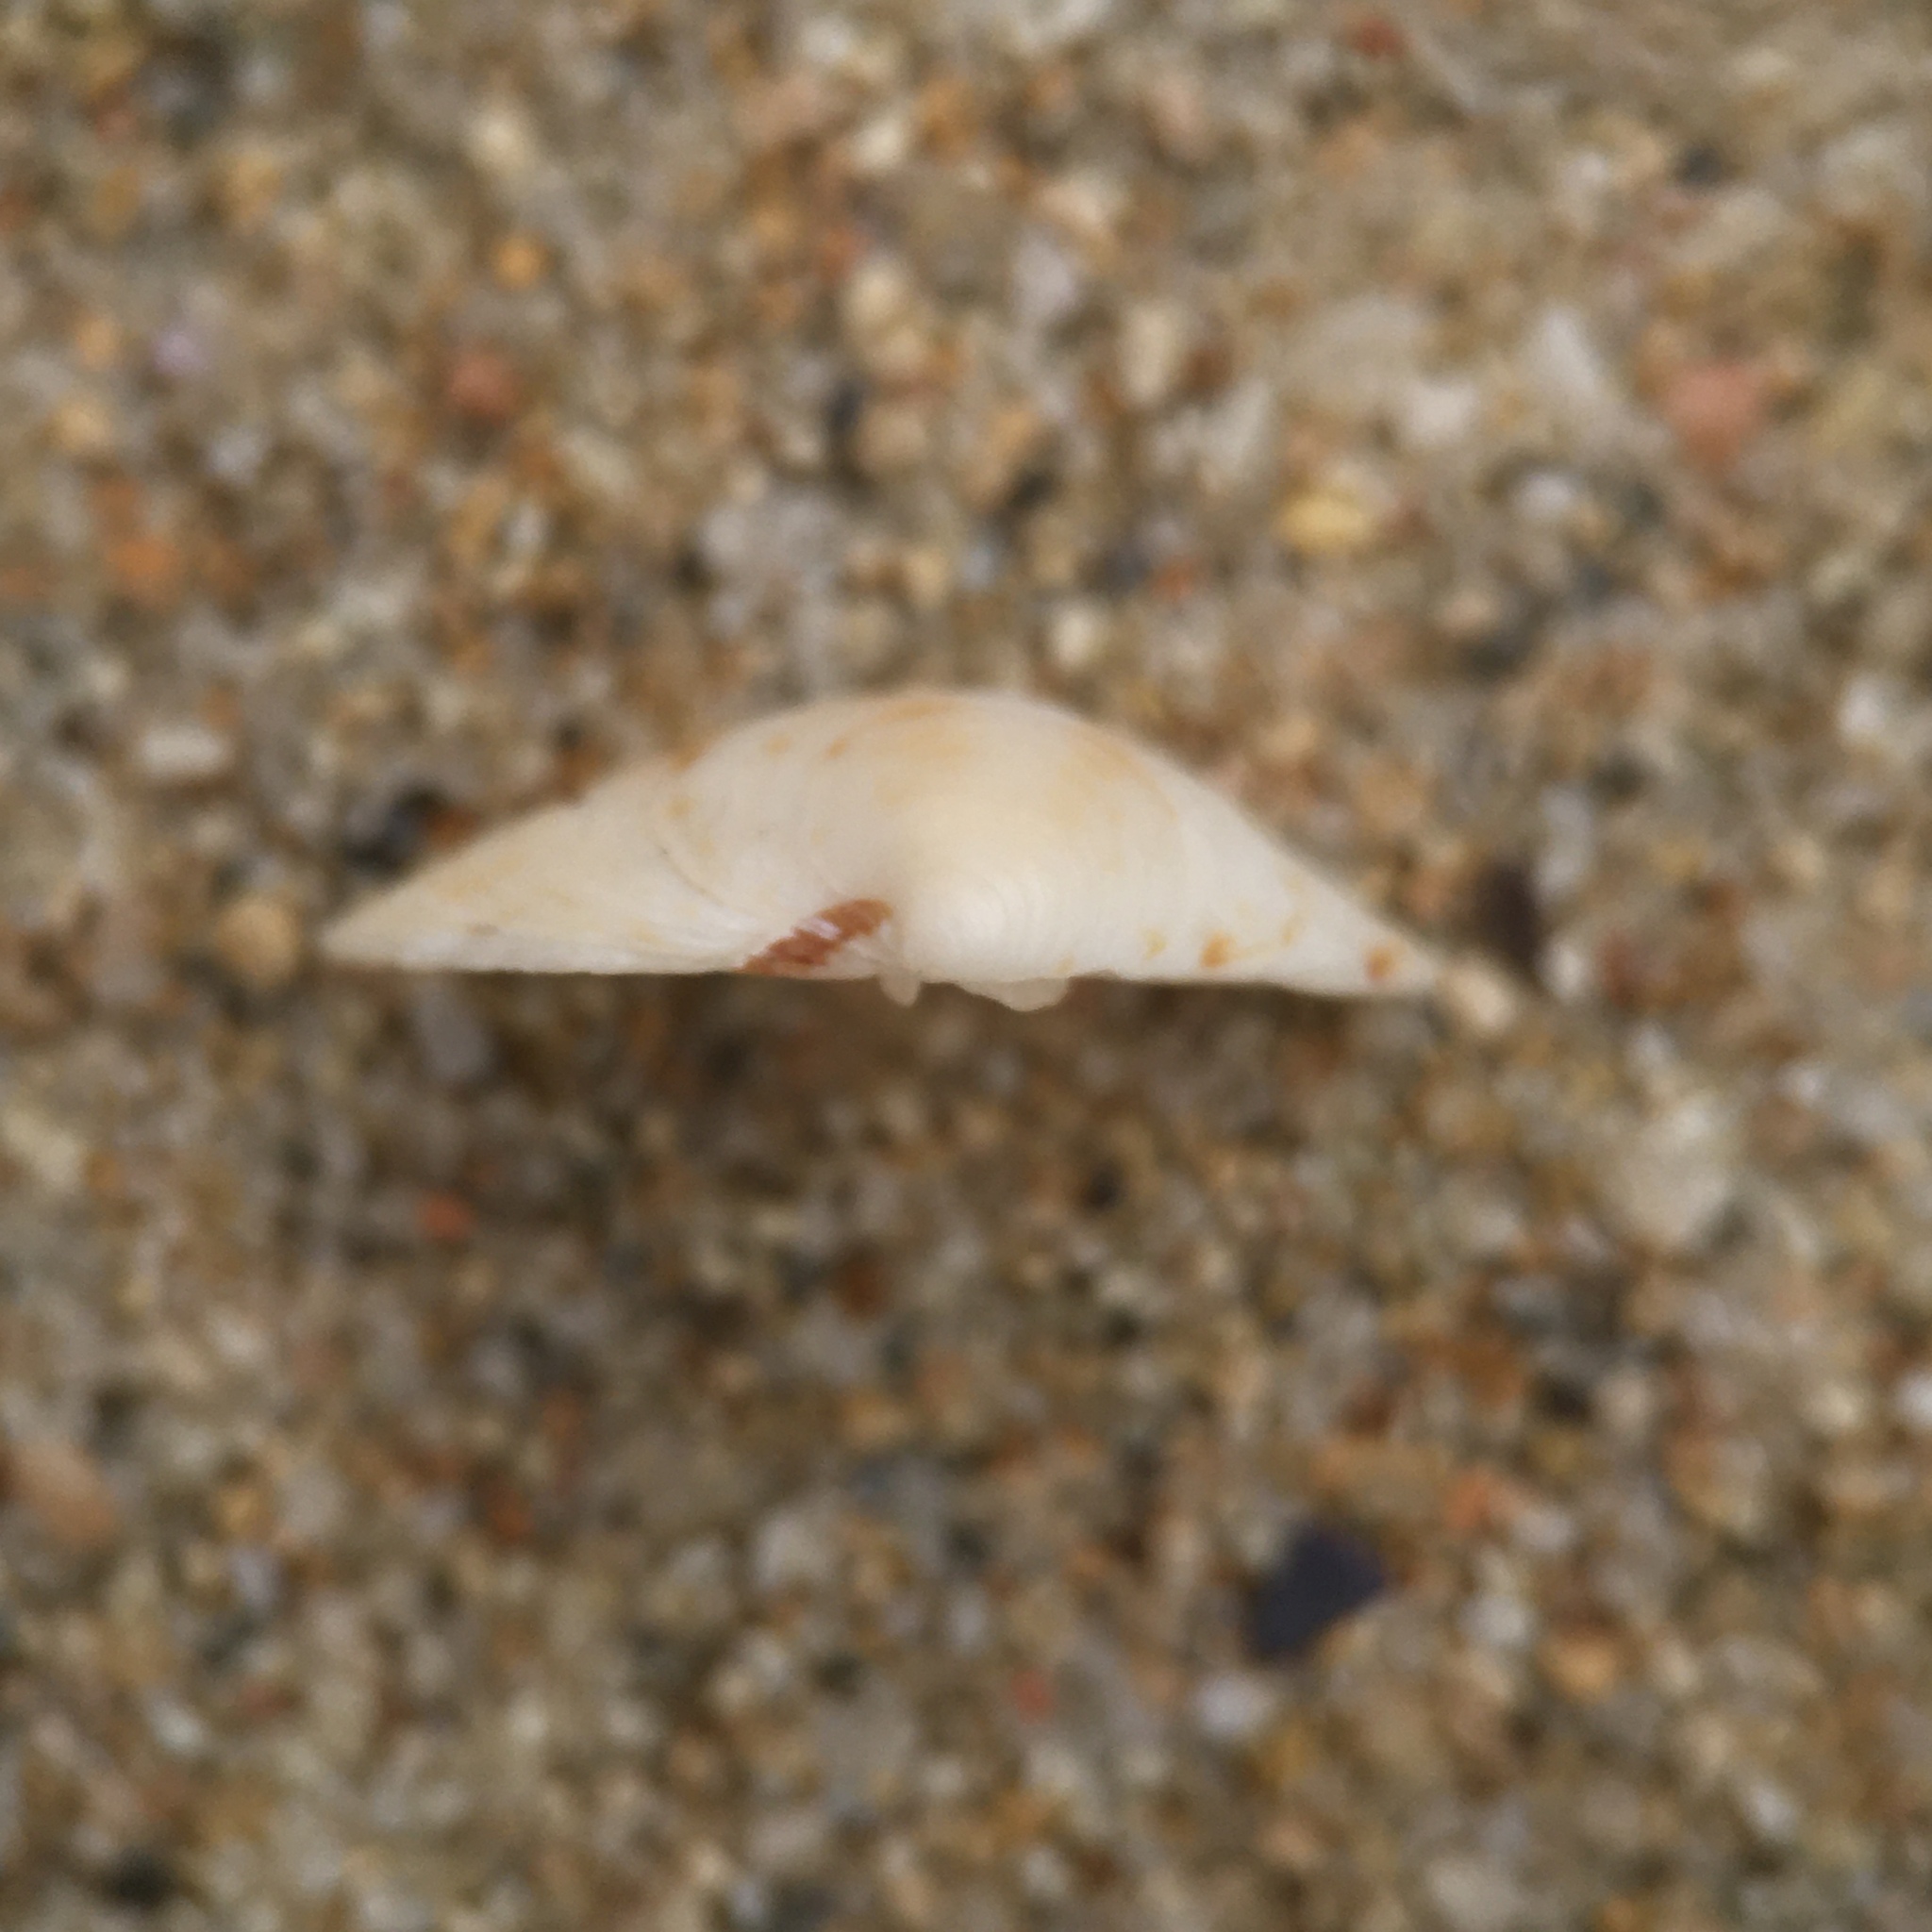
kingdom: Animalia
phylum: Mollusca
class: Bivalvia
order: Venerida
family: Veneridae
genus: Dosinia
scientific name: Dosinia exoleta
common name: Rayed artemis
